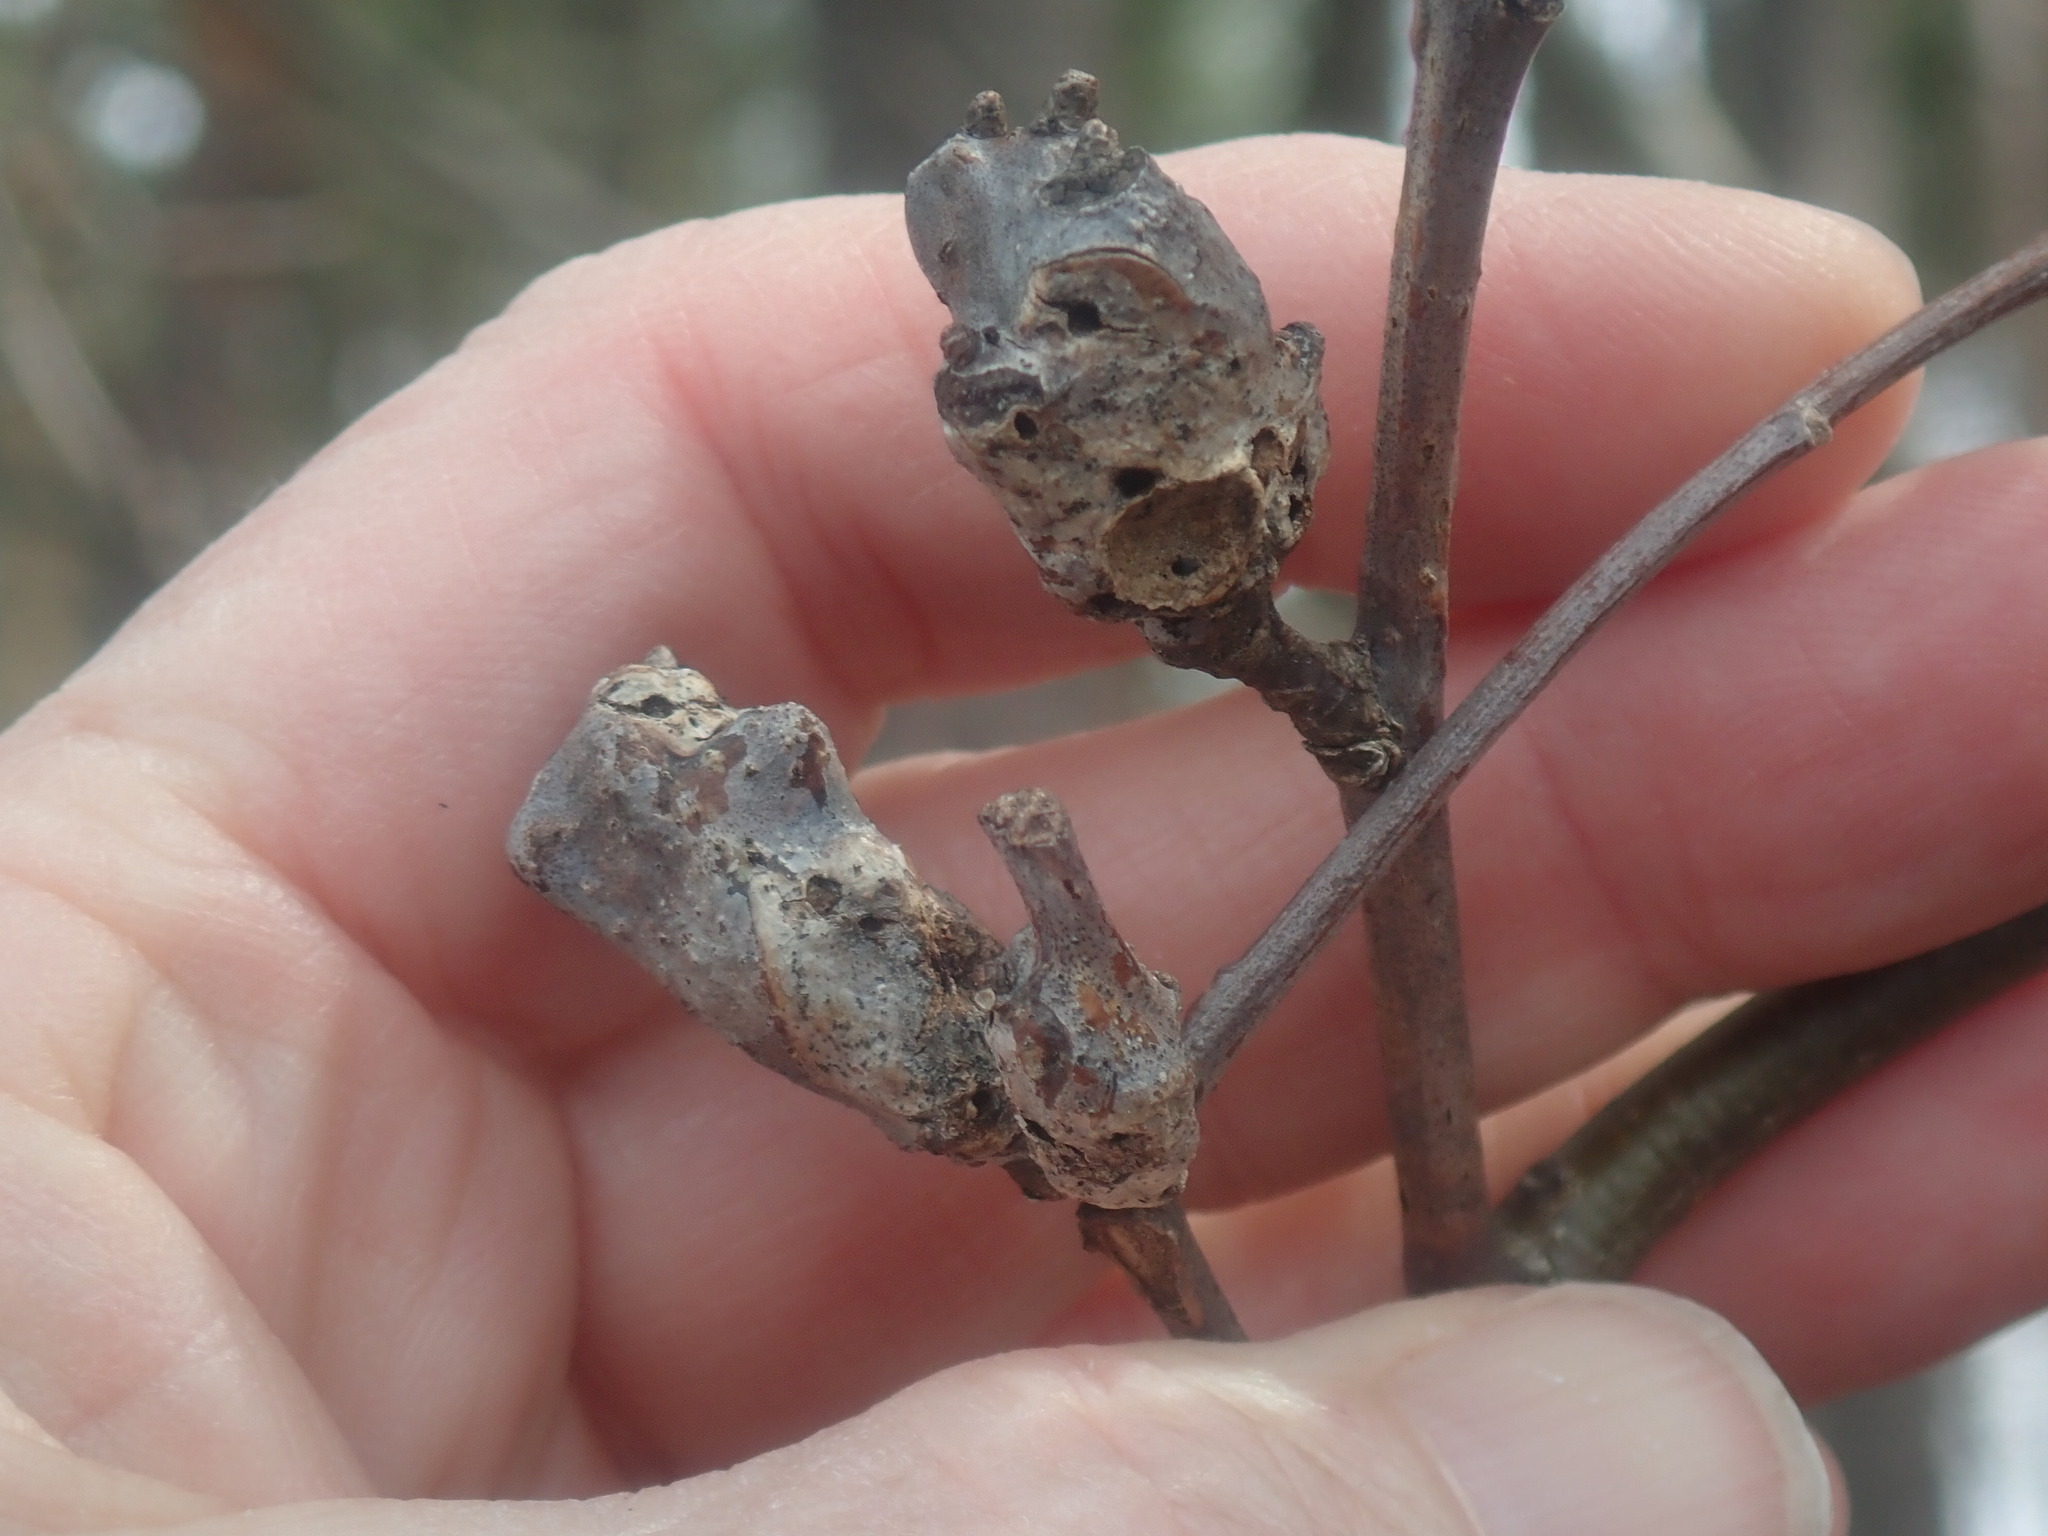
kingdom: Animalia
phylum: Arthropoda
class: Insecta
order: Hymenoptera
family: Cynipidae
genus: Callirhytis
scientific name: Callirhytis
